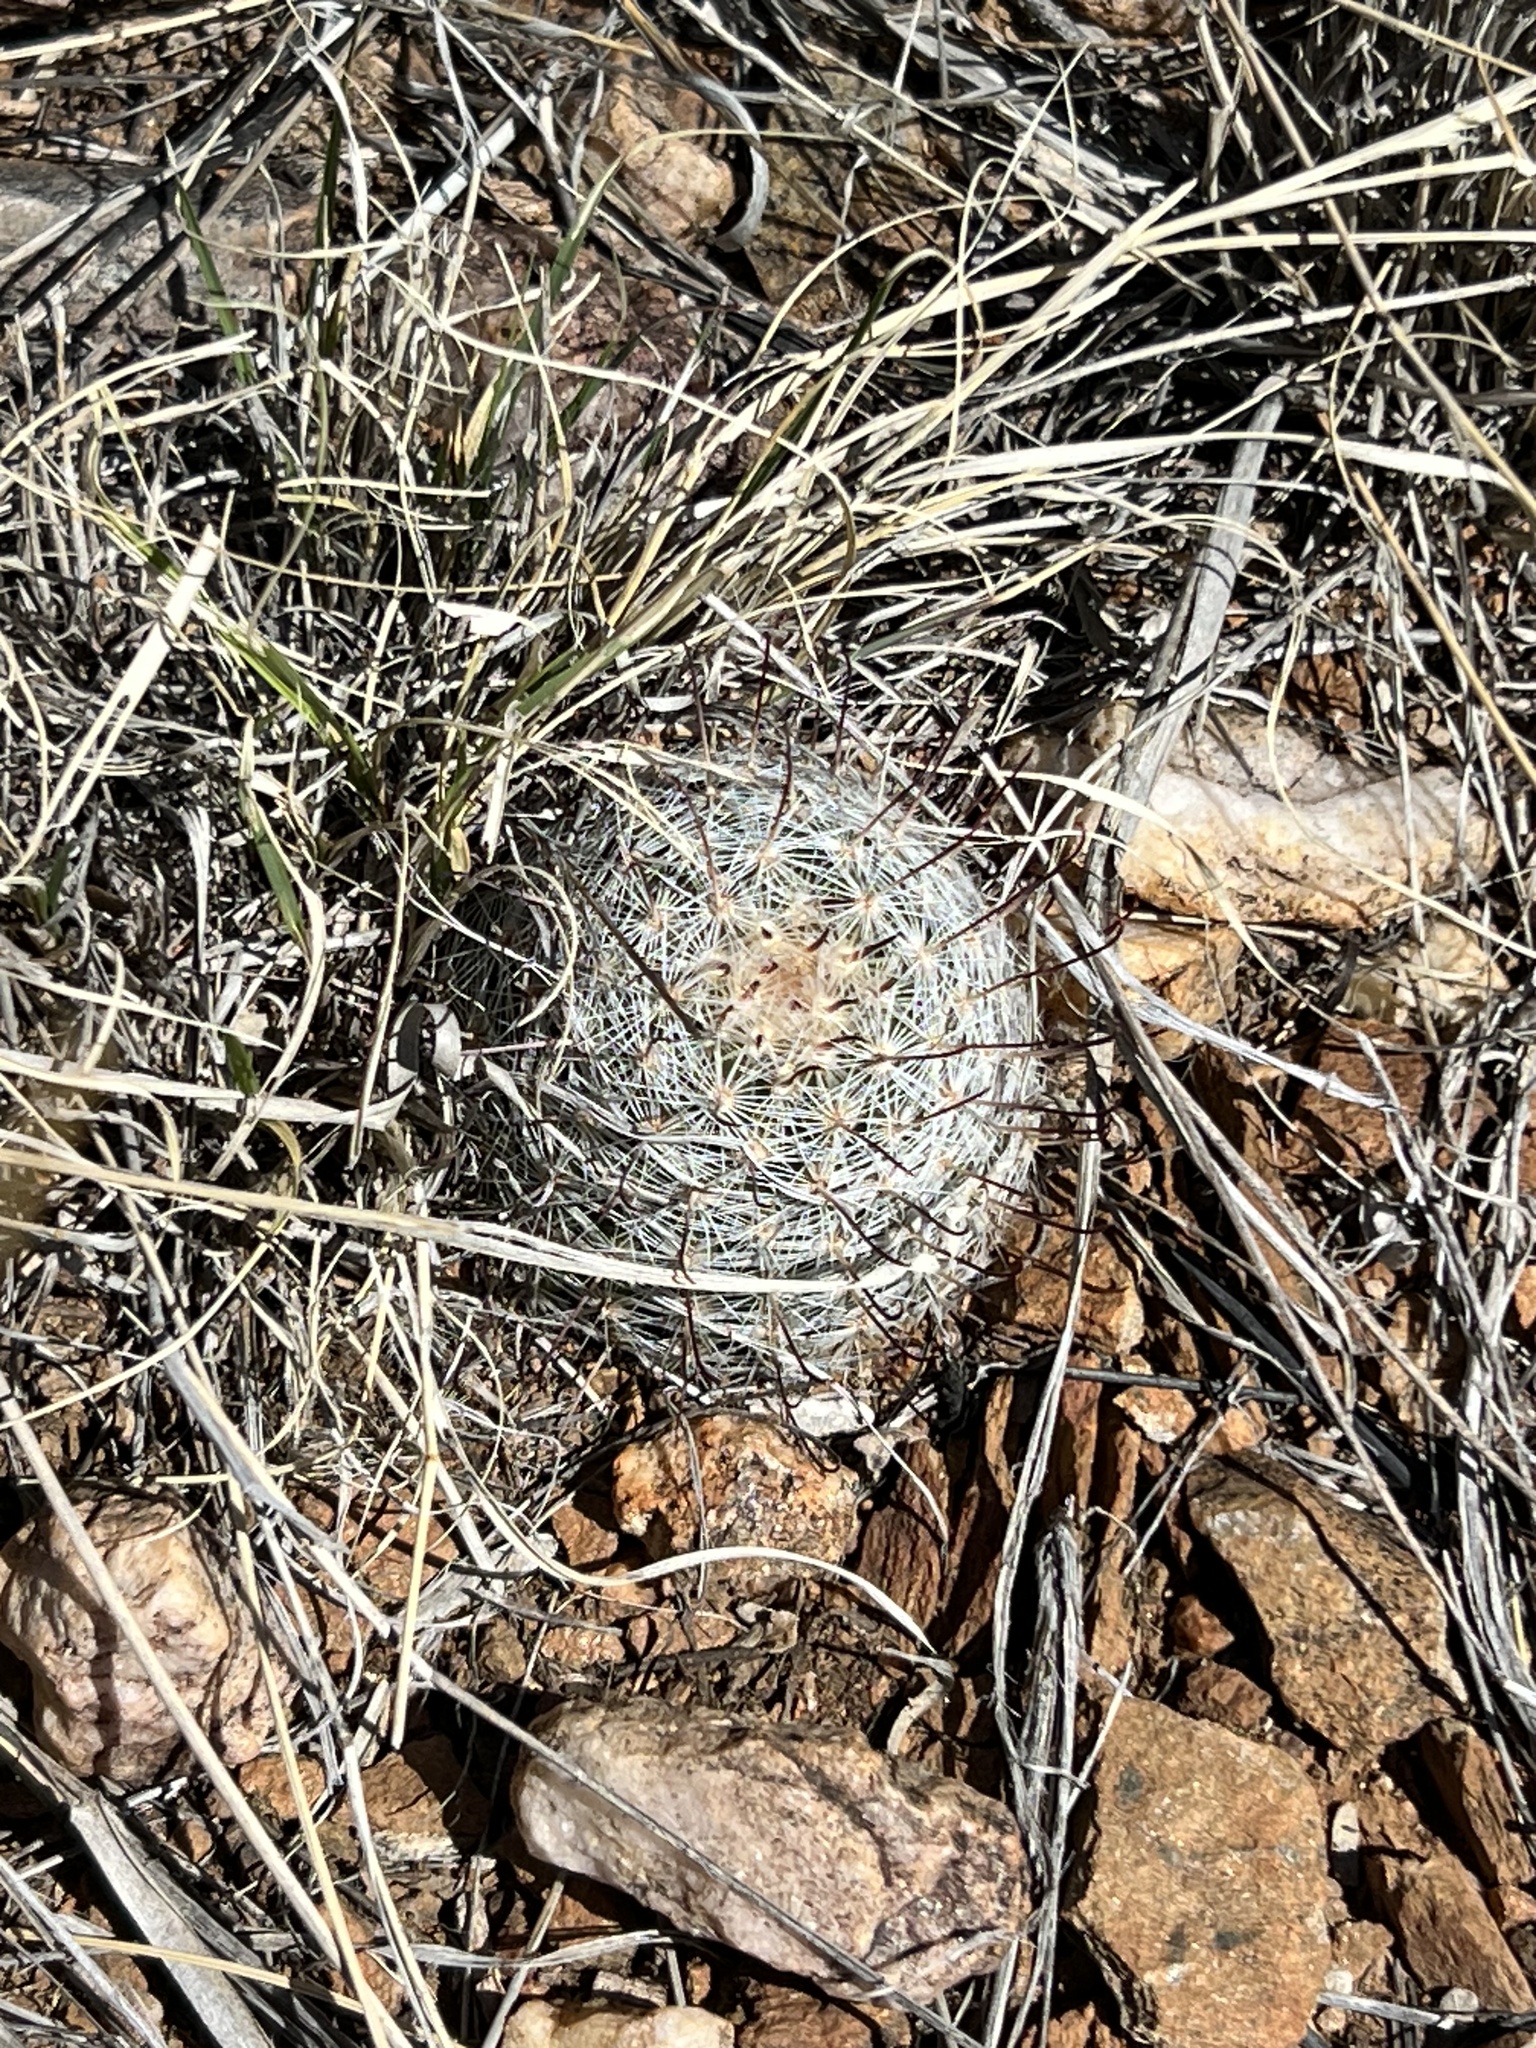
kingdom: Plantae
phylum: Tracheophyta
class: Magnoliopsida
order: Caryophyllales
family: Cactaceae
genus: Cochemiea
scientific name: Cochemiea grahamii
